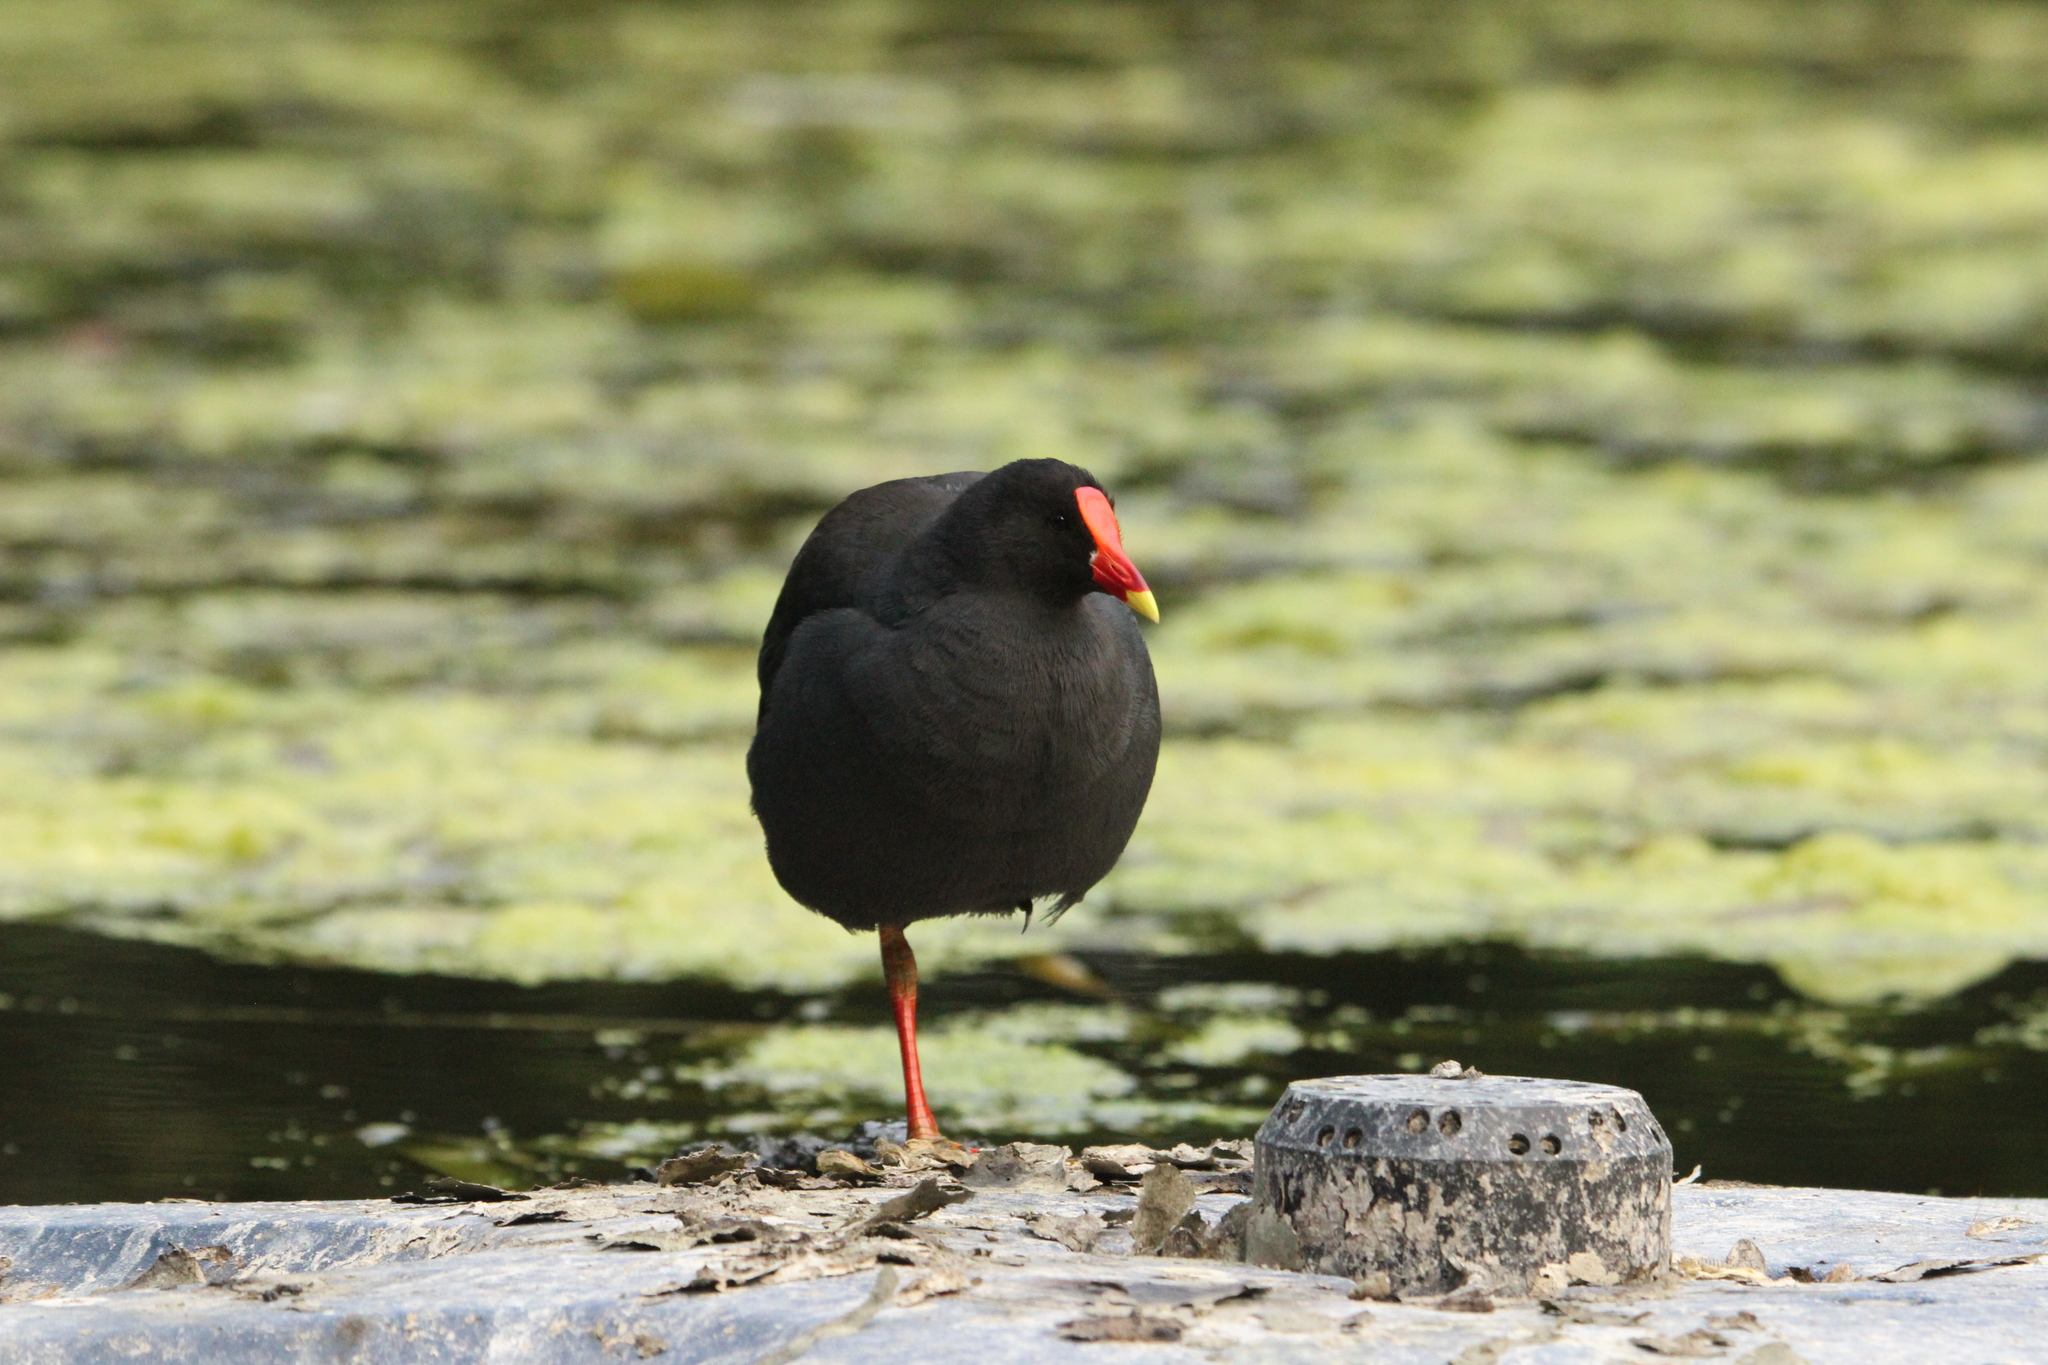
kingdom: Animalia
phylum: Chordata
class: Aves
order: Gruiformes
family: Rallidae
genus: Gallinula
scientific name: Gallinula tenebrosa
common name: Dusky moorhen
